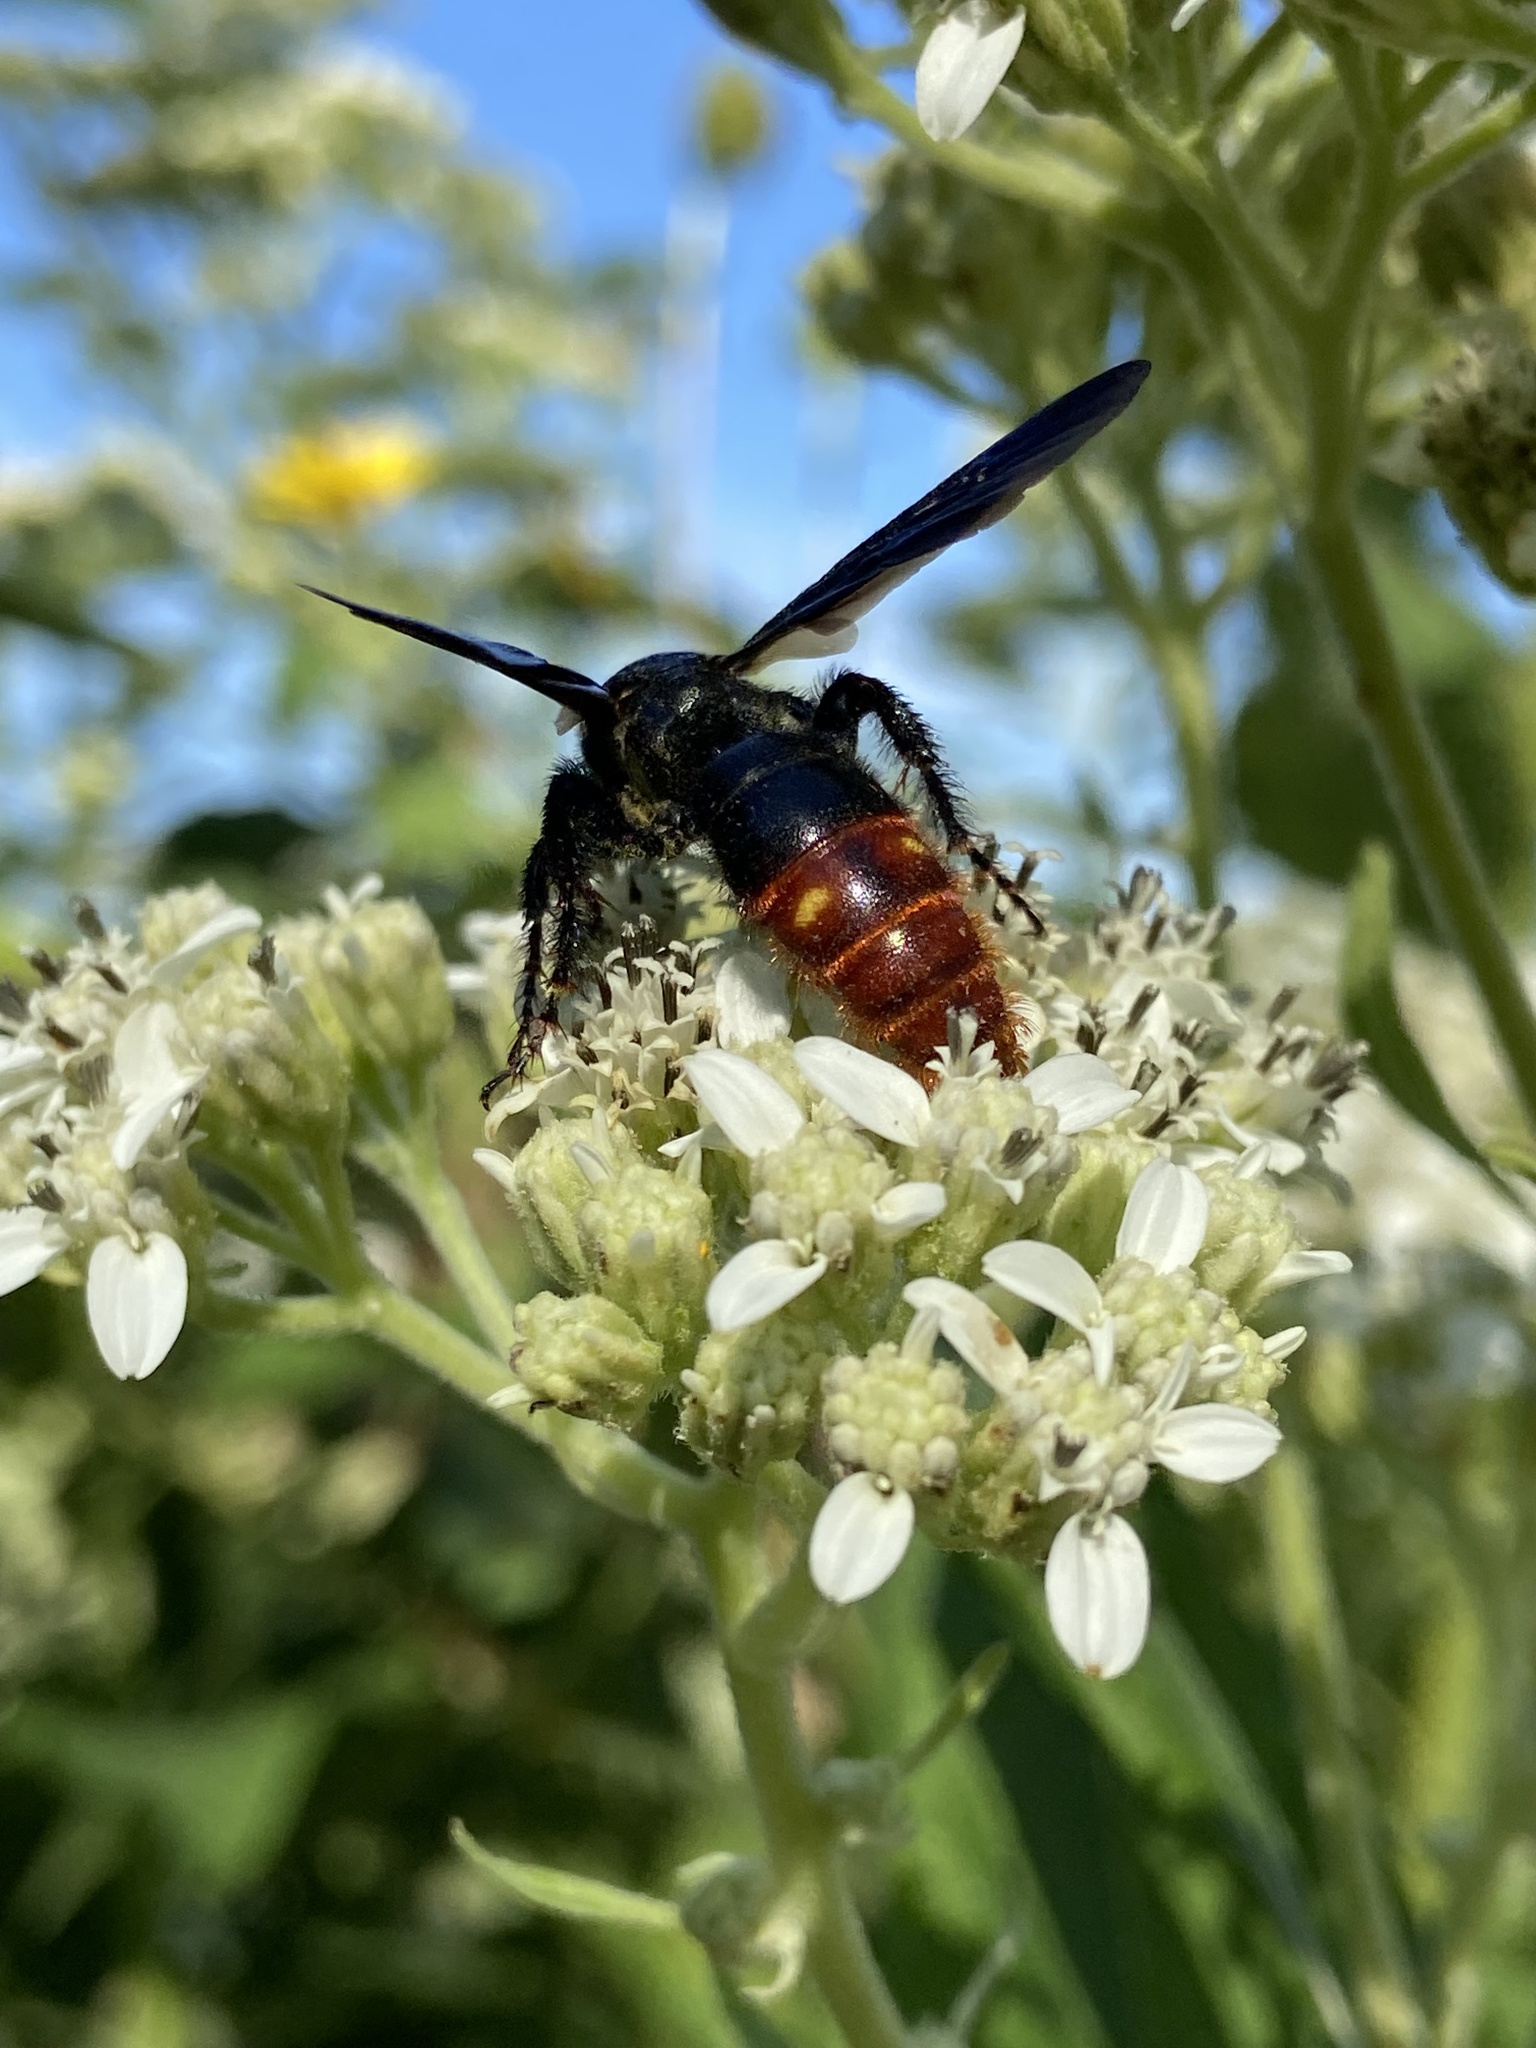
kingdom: Animalia
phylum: Arthropoda
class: Insecta
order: Hymenoptera
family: Scoliidae
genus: Scolia
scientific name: Scolia dubia
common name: Blue-winged scoliid wasp
